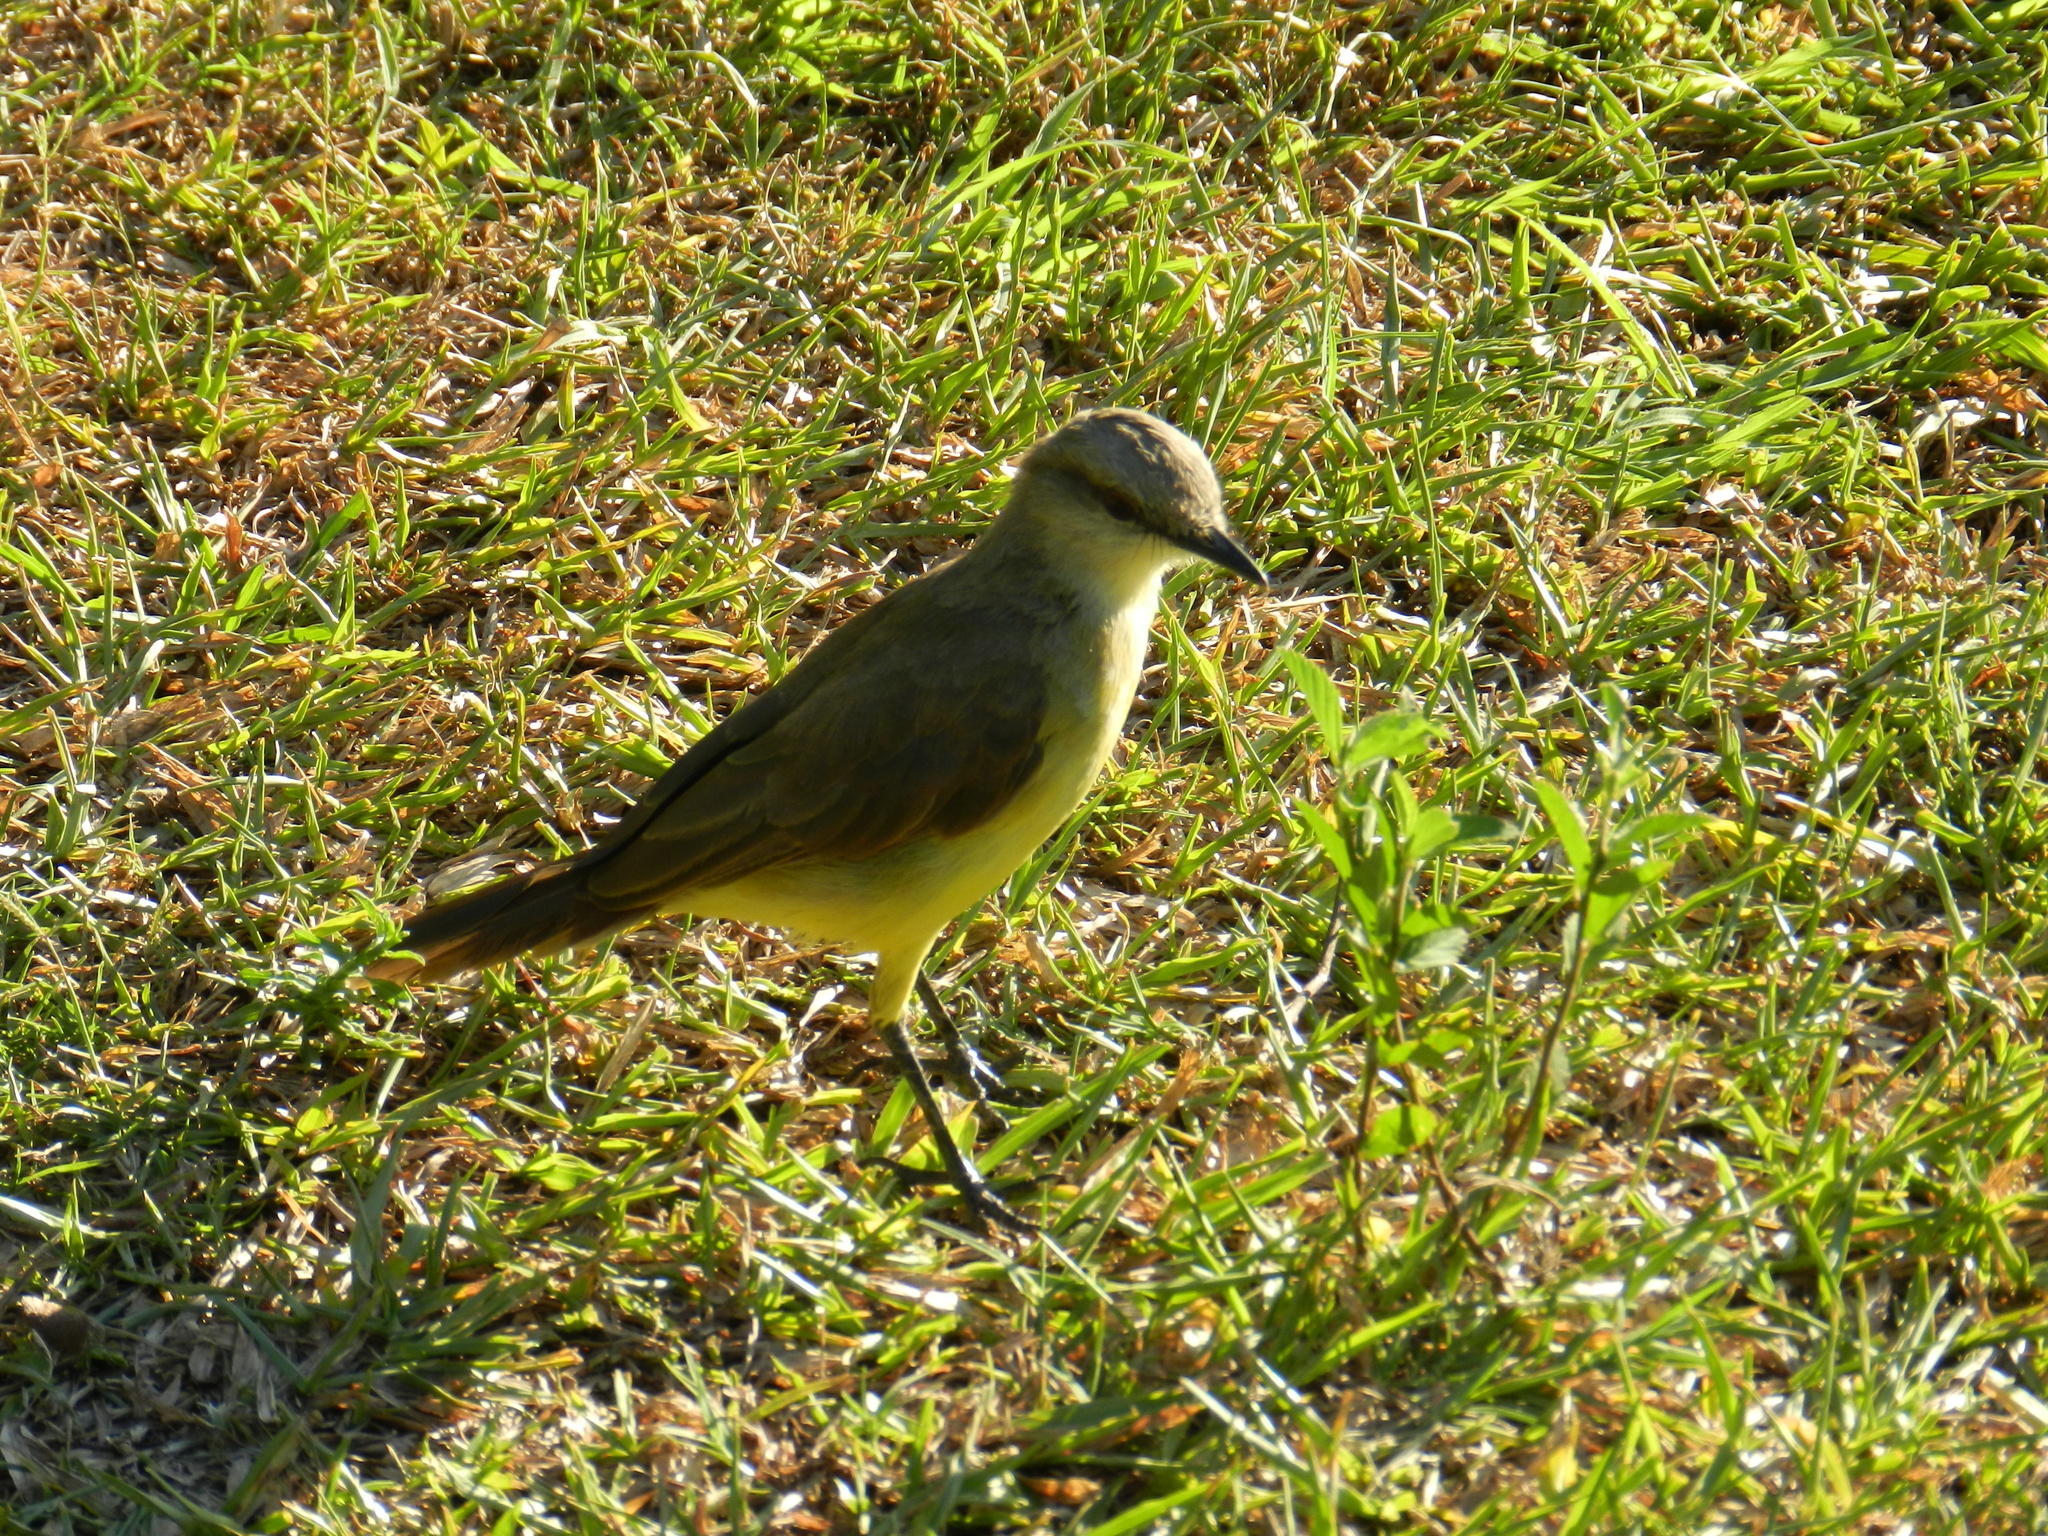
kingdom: Animalia
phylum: Chordata
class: Aves
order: Passeriformes
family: Tyrannidae
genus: Machetornis
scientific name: Machetornis rixosa
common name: Cattle tyrant
